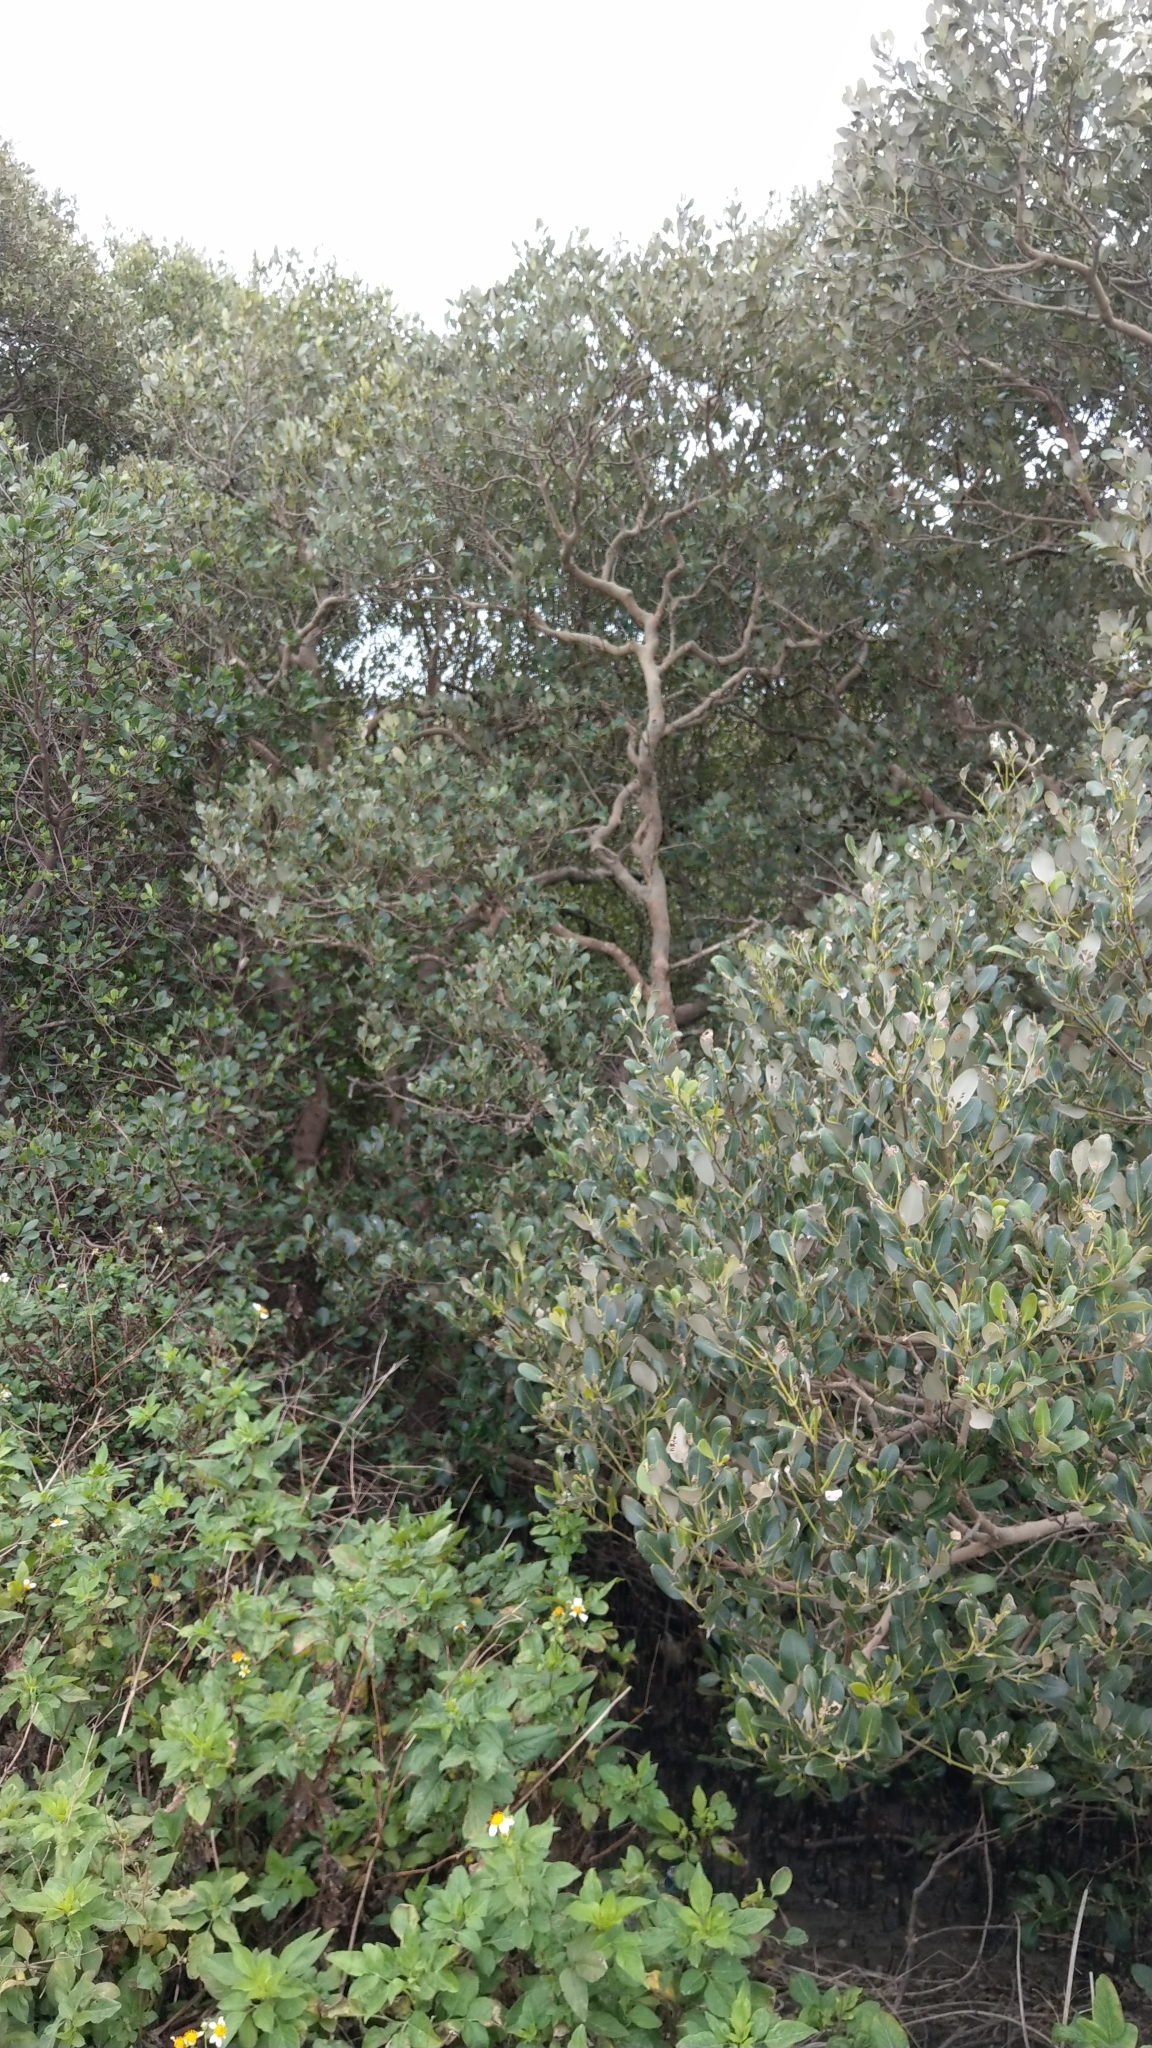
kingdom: Plantae
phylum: Tracheophyta
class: Magnoliopsida
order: Lamiales
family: Acanthaceae
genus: Avicennia
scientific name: Avicennia marina
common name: Gray mangrove
